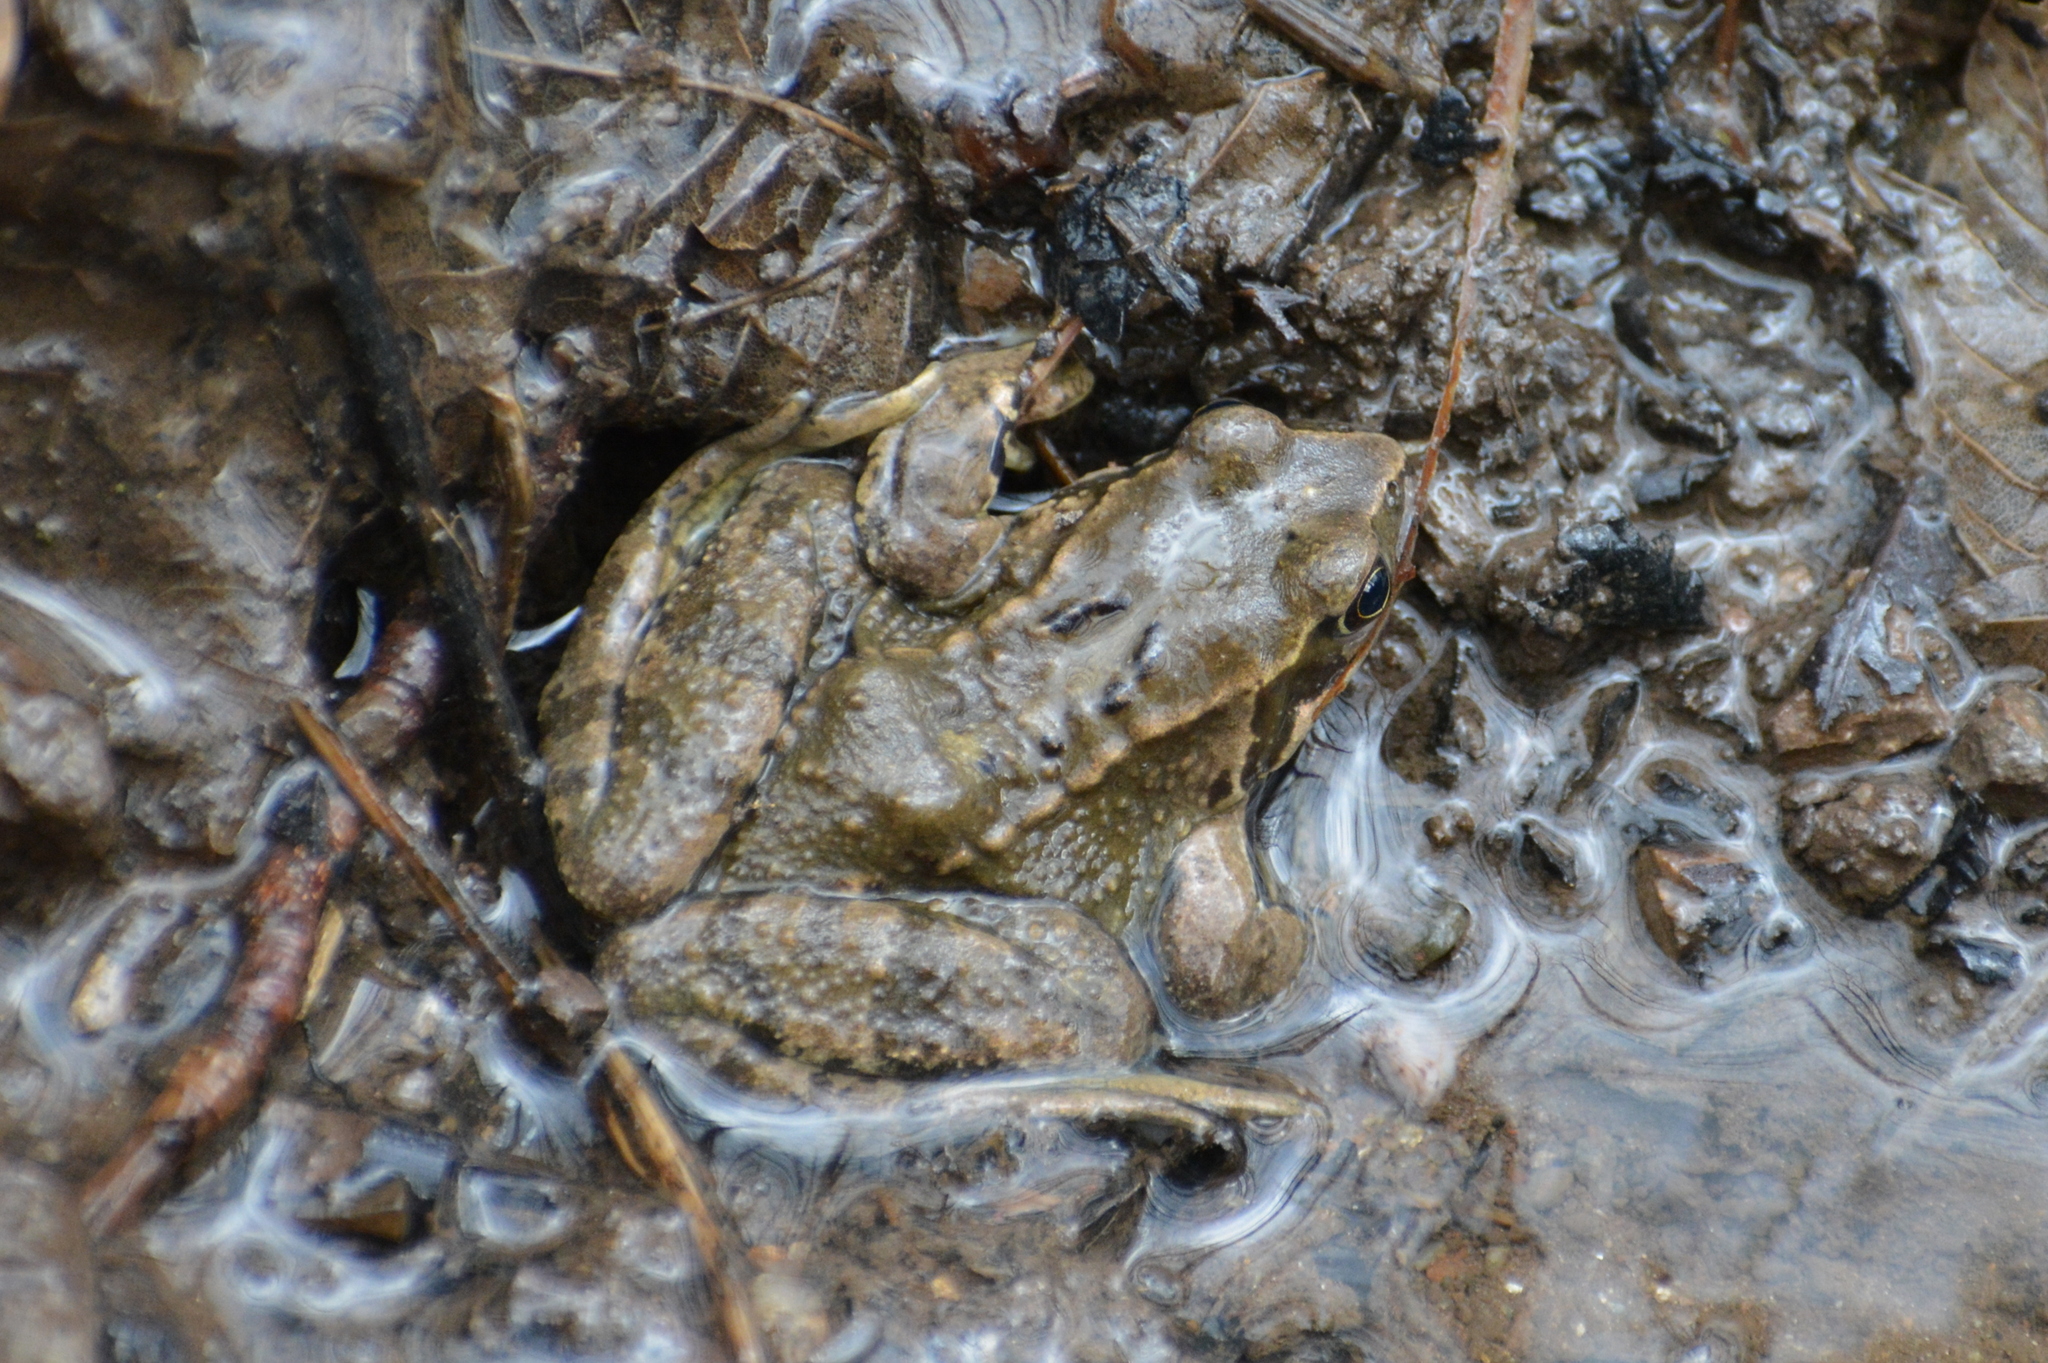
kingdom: Animalia
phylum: Chordata
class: Amphibia
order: Anura
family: Ranidae
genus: Rana
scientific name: Rana temporaria
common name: Common frog
